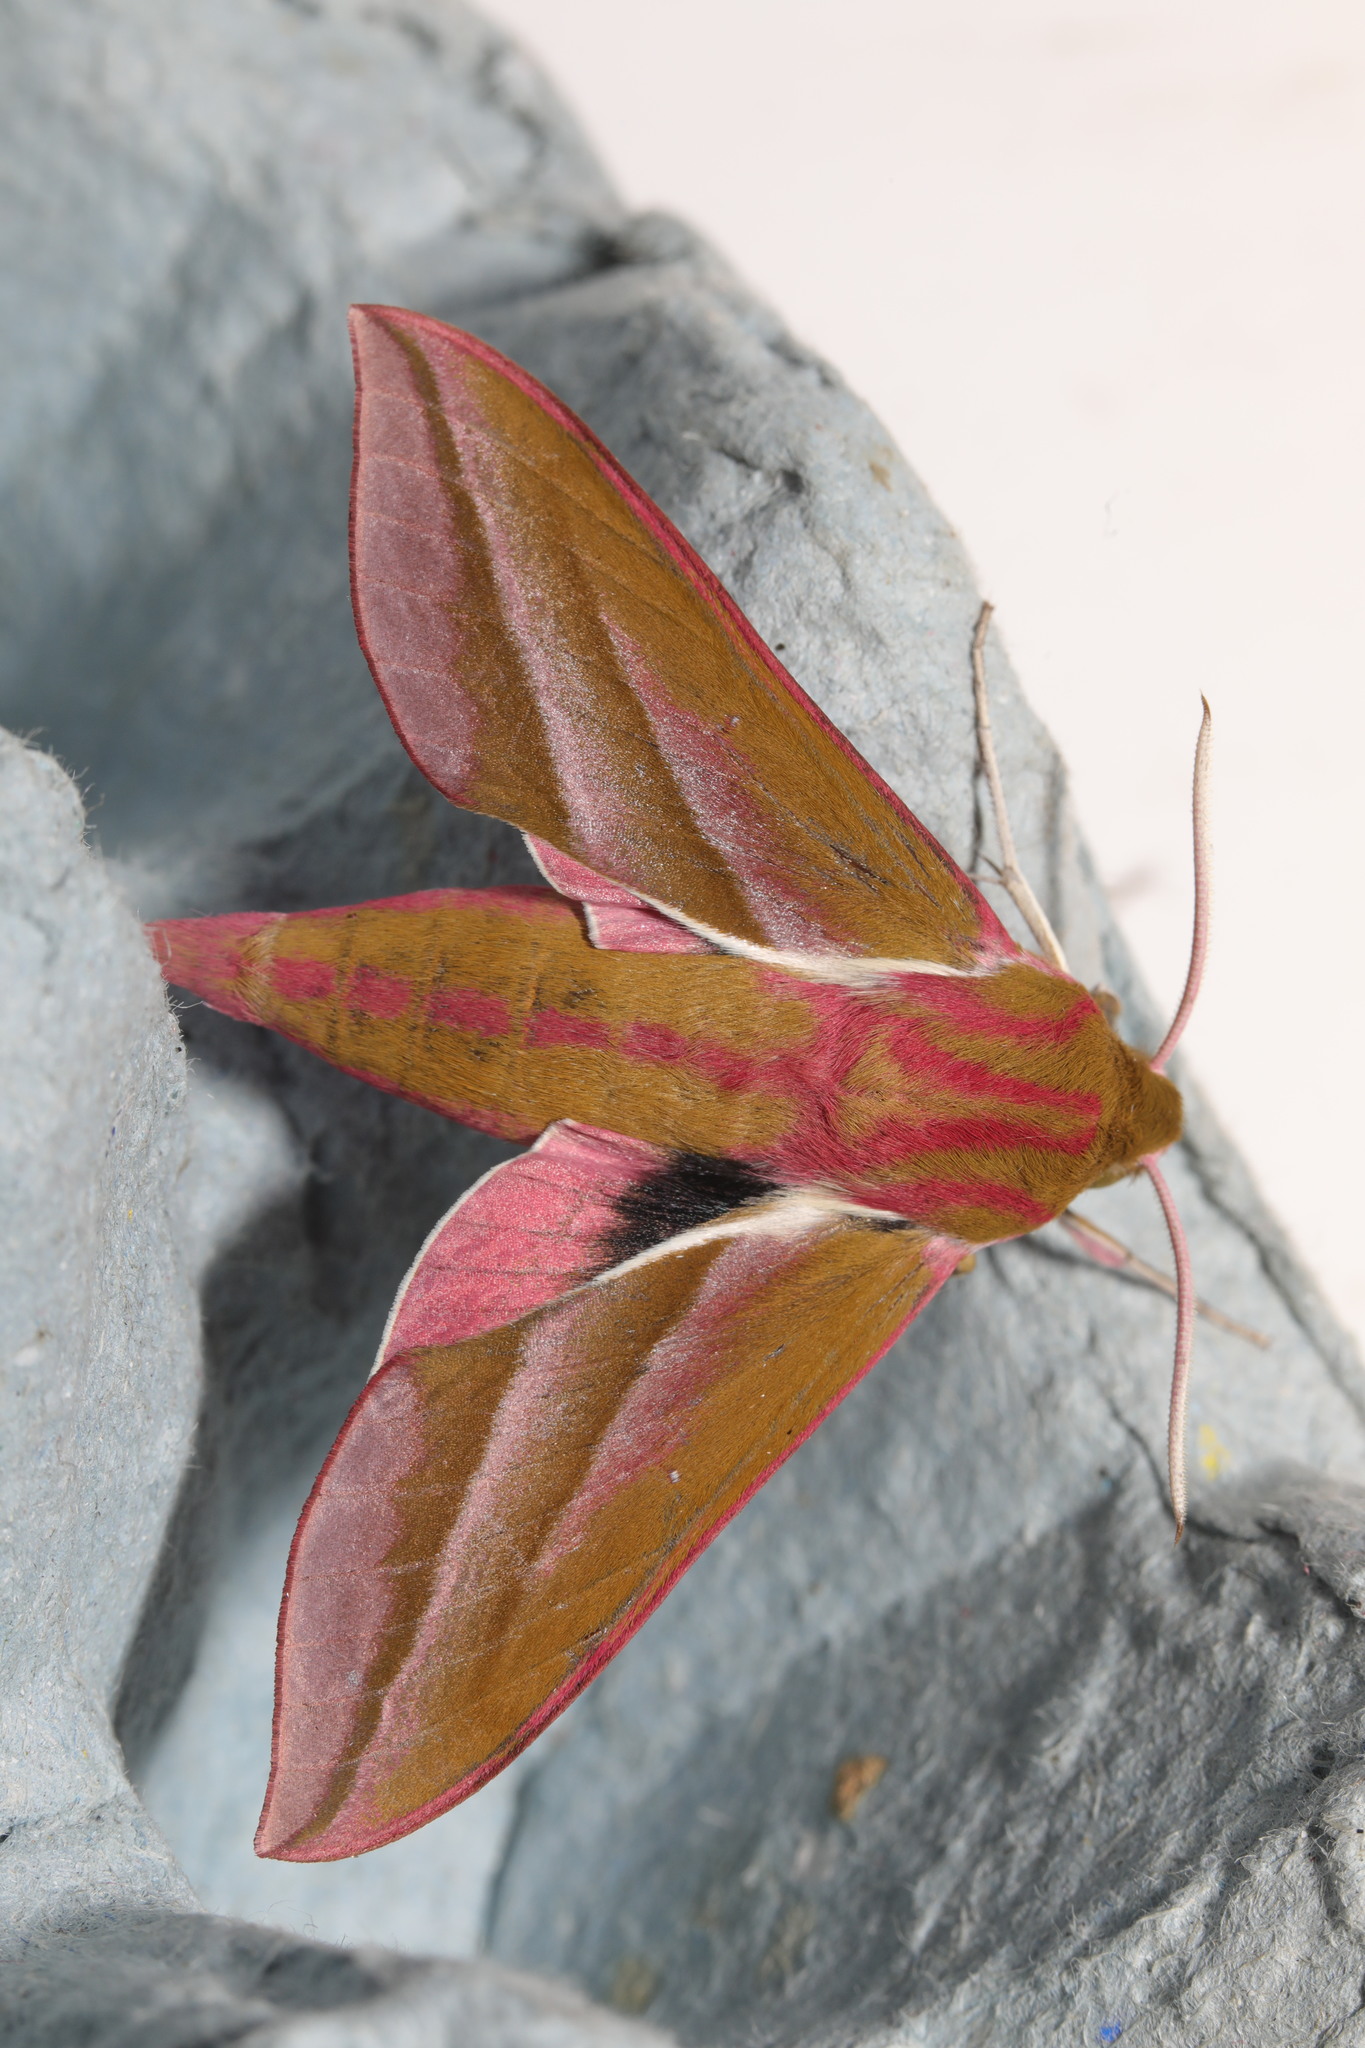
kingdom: Animalia
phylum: Arthropoda
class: Insecta
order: Lepidoptera
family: Sphingidae
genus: Deilephila
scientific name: Deilephila elpenor
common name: Elephant hawk-moth
